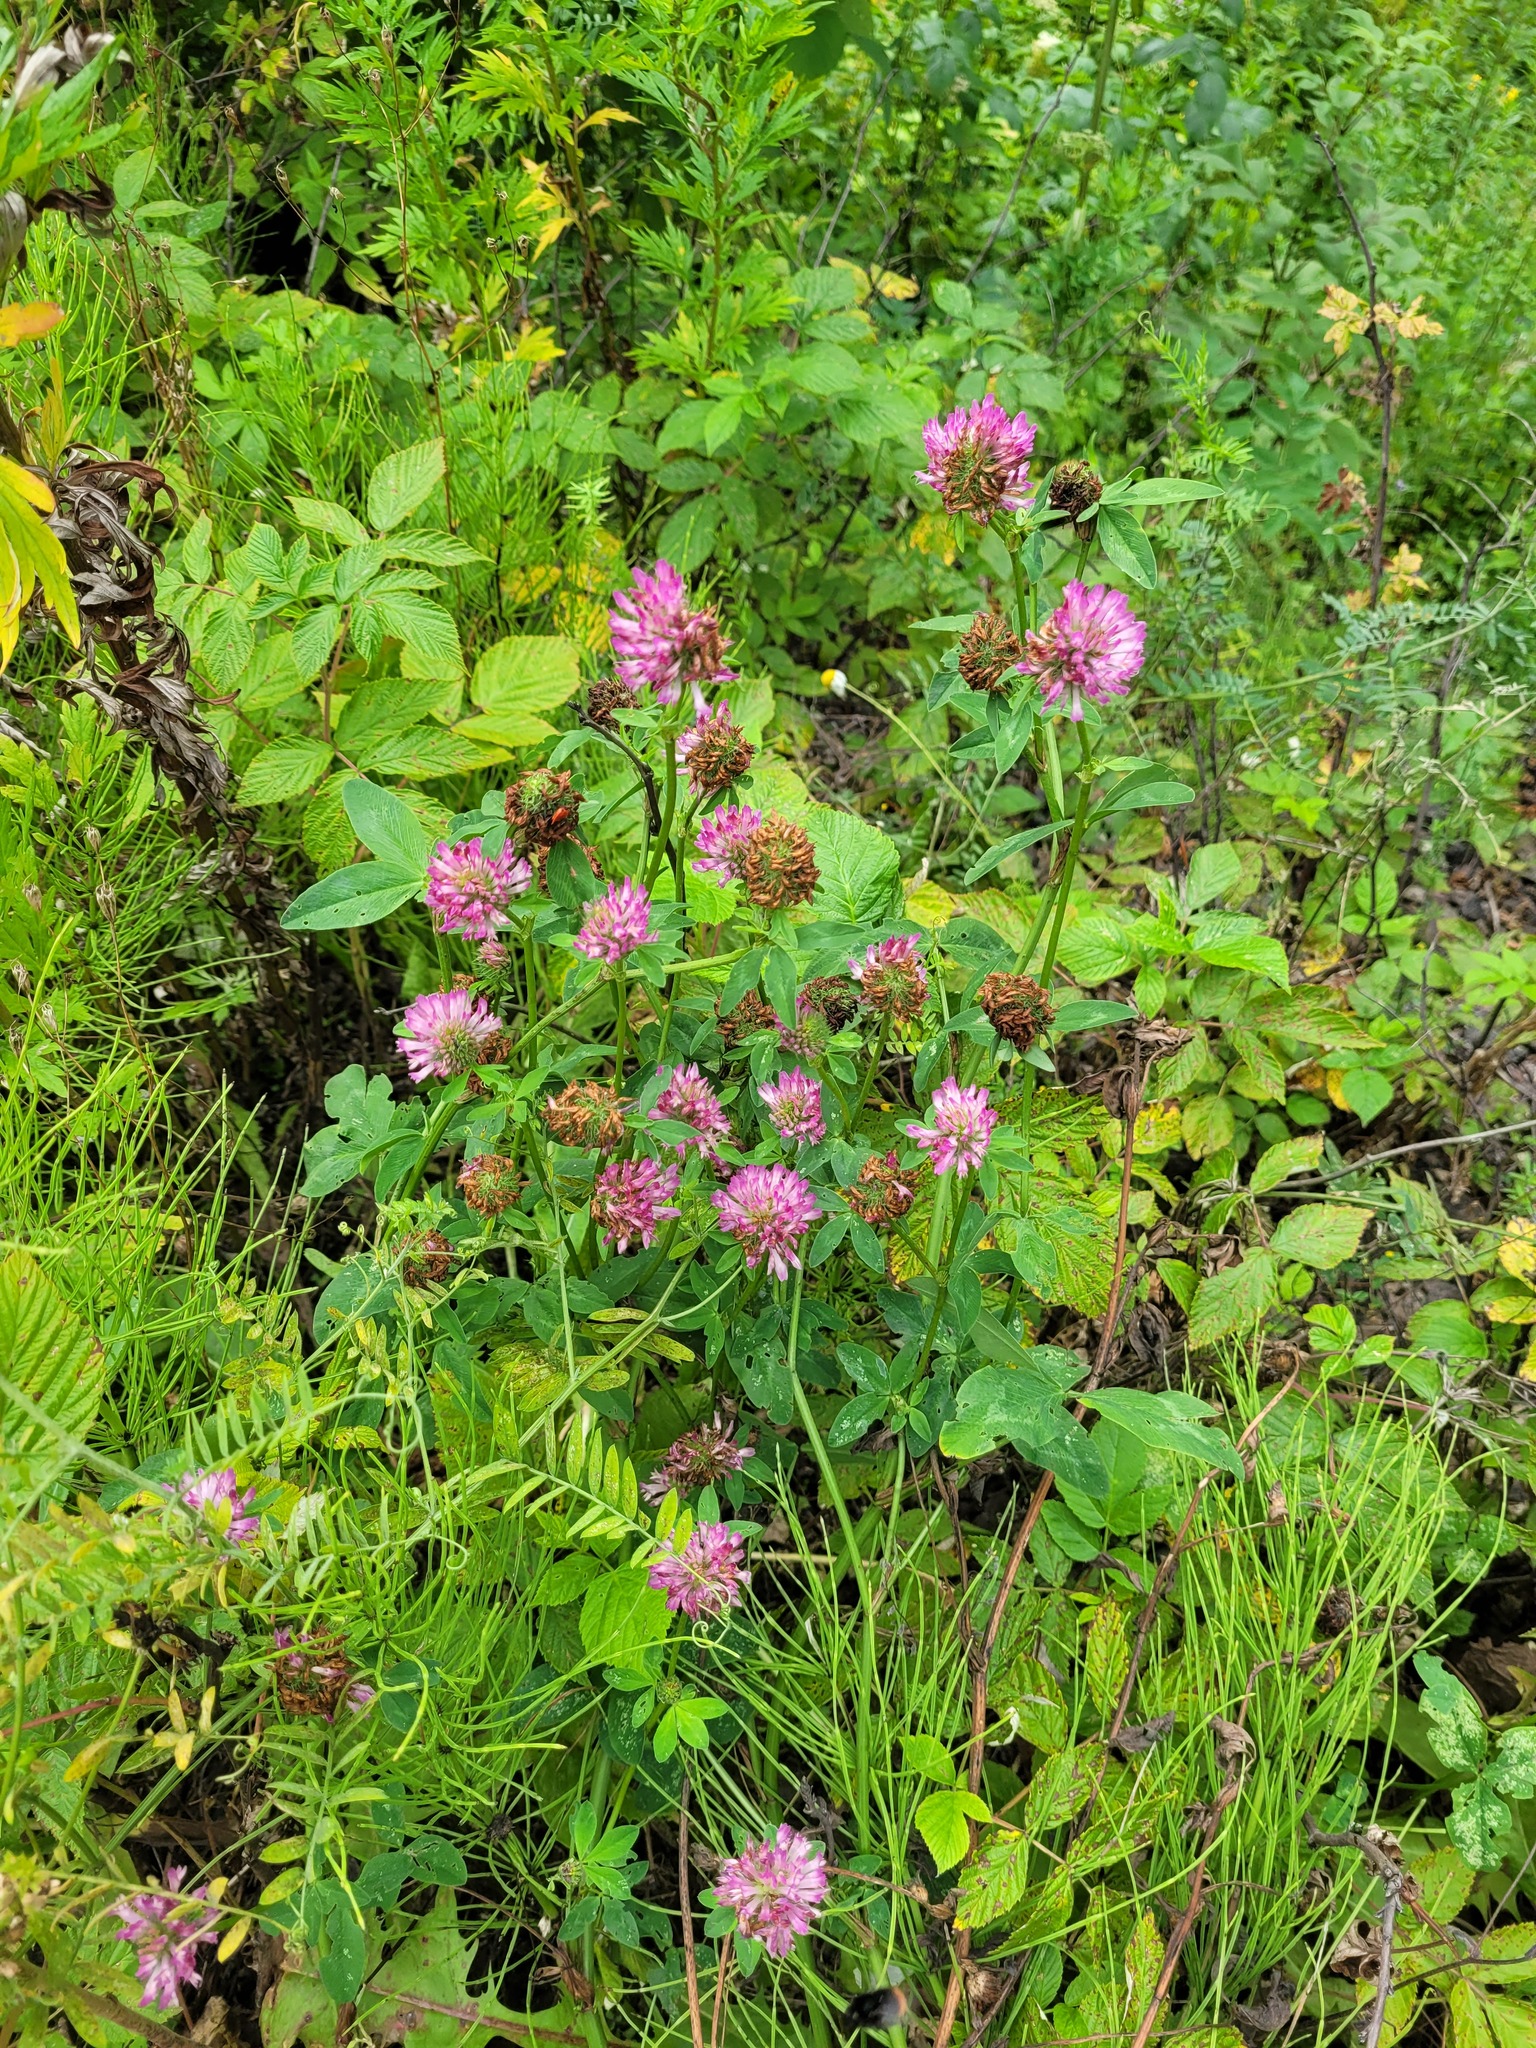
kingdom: Plantae
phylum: Tracheophyta
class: Magnoliopsida
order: Fabales
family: Fabaceae
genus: Trifolium
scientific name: Trifolium pratense
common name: Red clover
